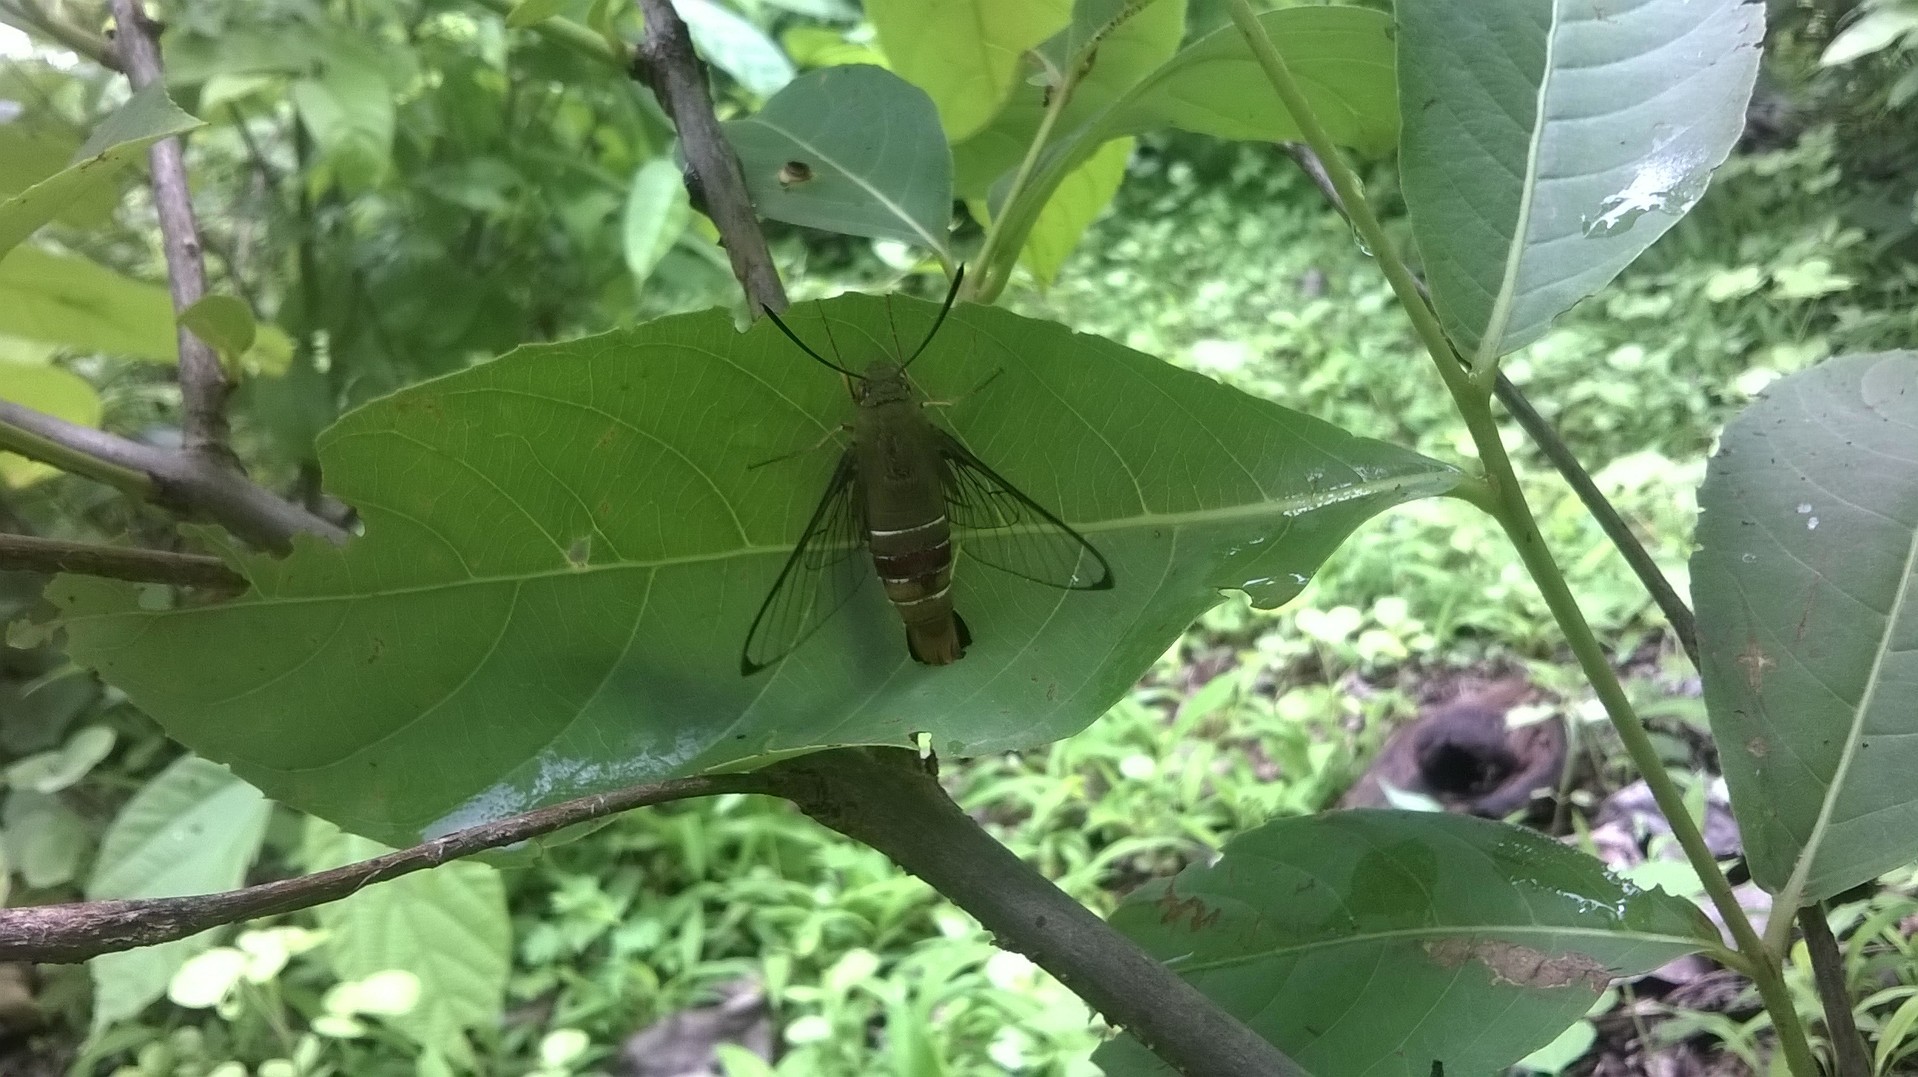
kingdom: Animalia
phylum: Arthropoda
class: Insecta
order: Lepidoptera
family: Sphingidae
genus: Cephonodes
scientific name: Cephonodes hylas
